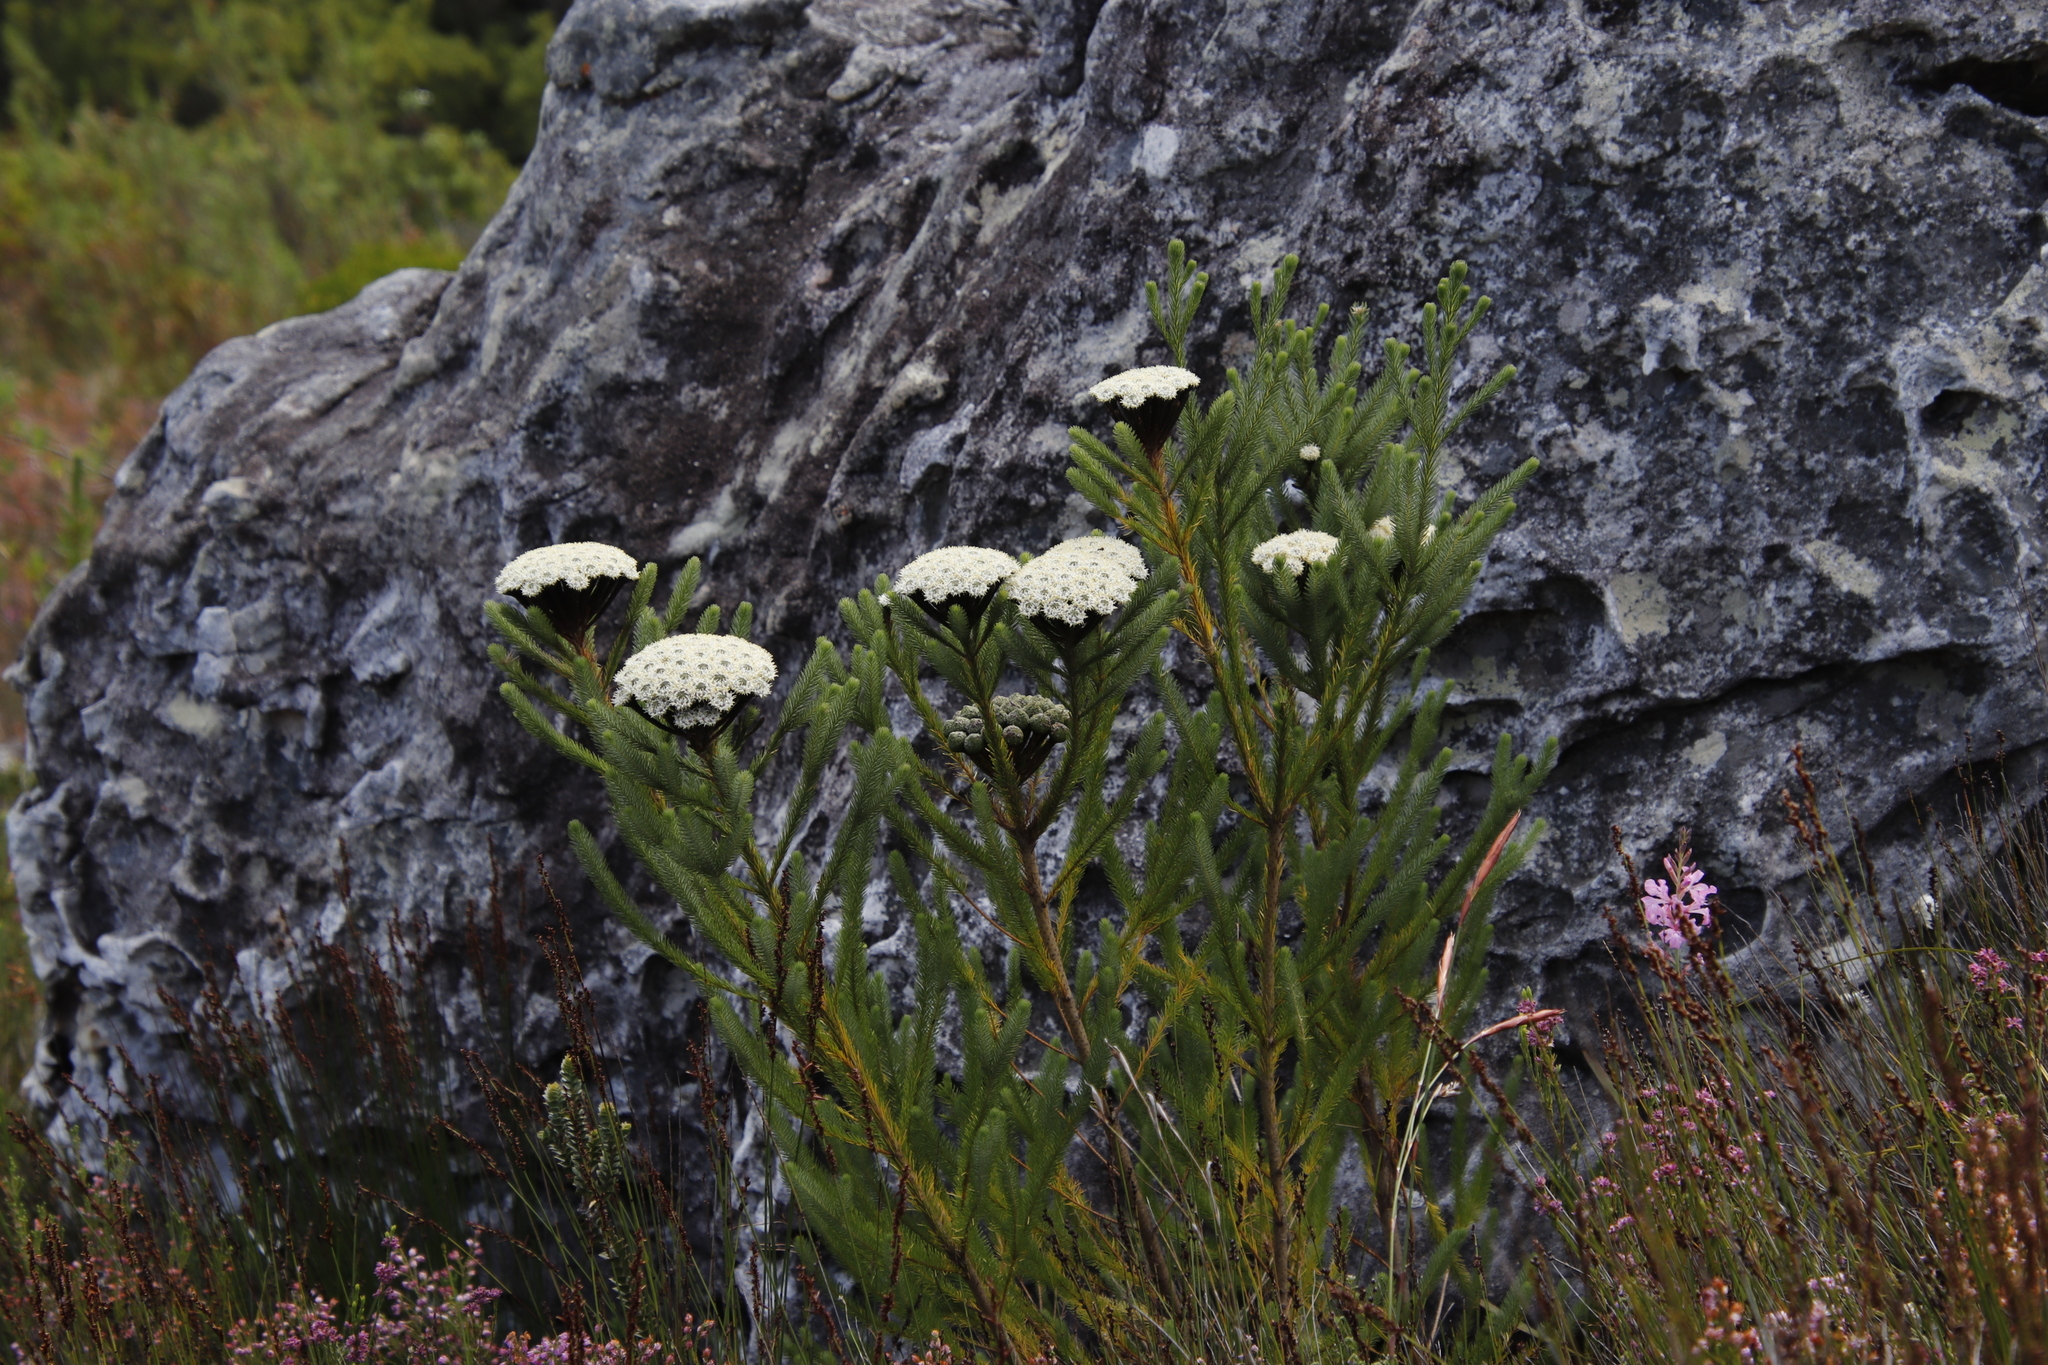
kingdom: Plantae
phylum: Tracheophyta
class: Magnoliopsida
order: Bruniales
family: Bruniaceae
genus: Berzelia
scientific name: Berzelia albiflora
